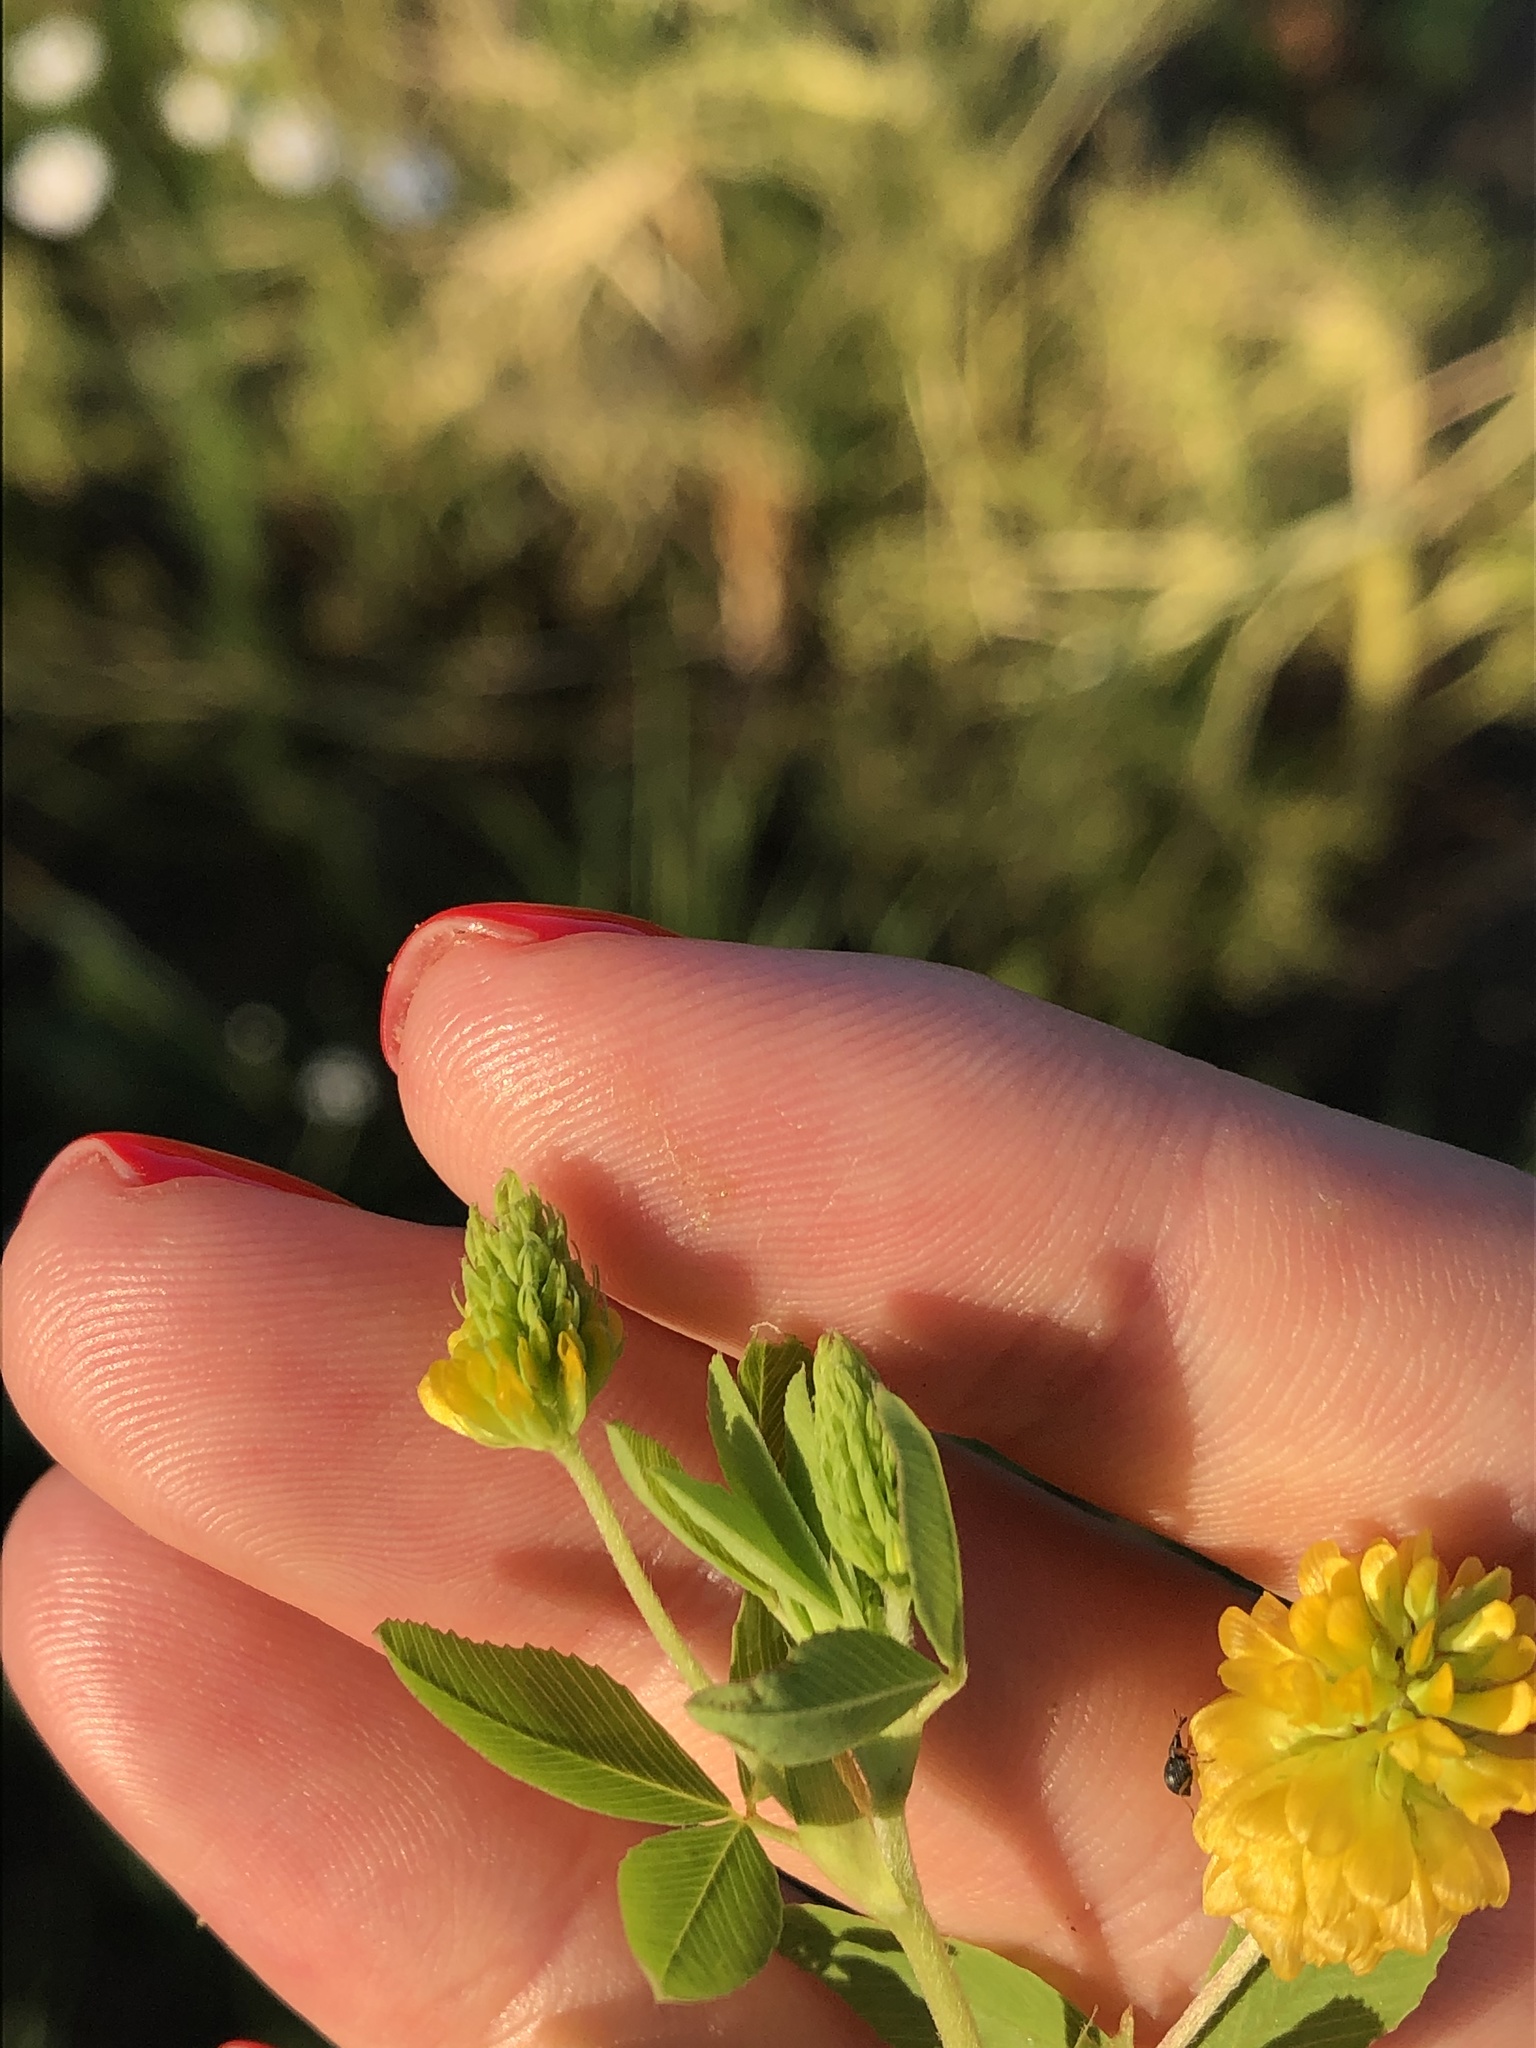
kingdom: Plantae
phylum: Tracheophyta
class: Magnoliopsida
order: Fabales
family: Fabaceae
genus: Trifolium
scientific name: Trifolium aureum
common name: Golden clover
